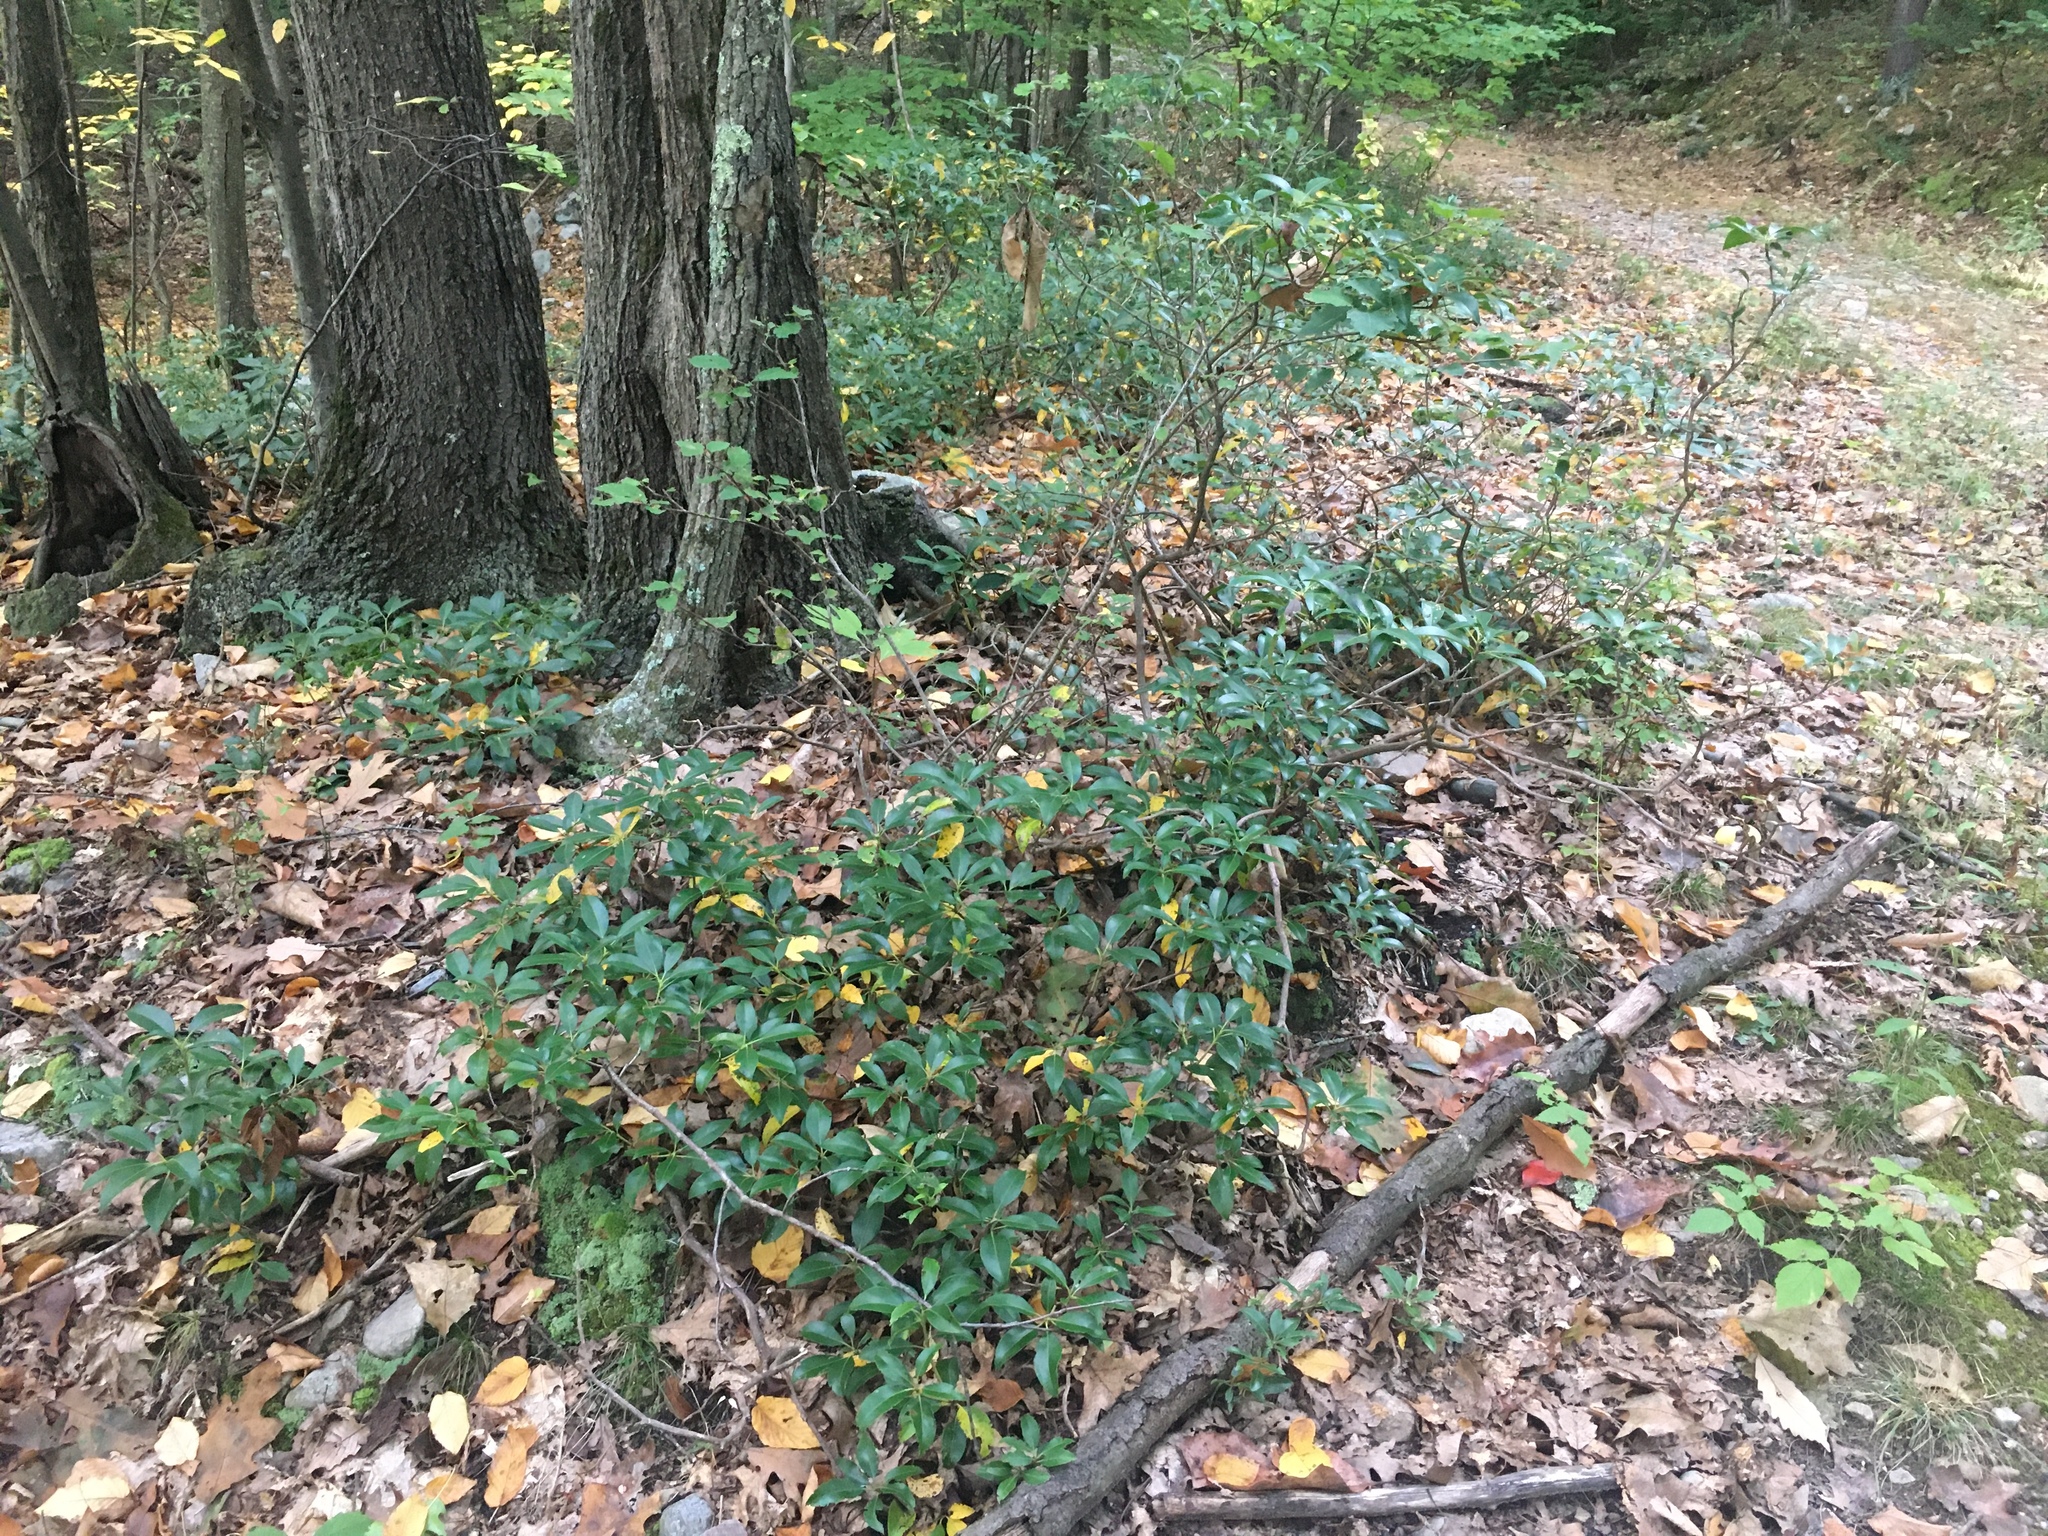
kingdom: Plantae
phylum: Tracheophyta
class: Magnoliopsida
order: Ericales
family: Ericaceae
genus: Kalmia
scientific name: Kalmia latifolia
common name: Mountain-laurel
